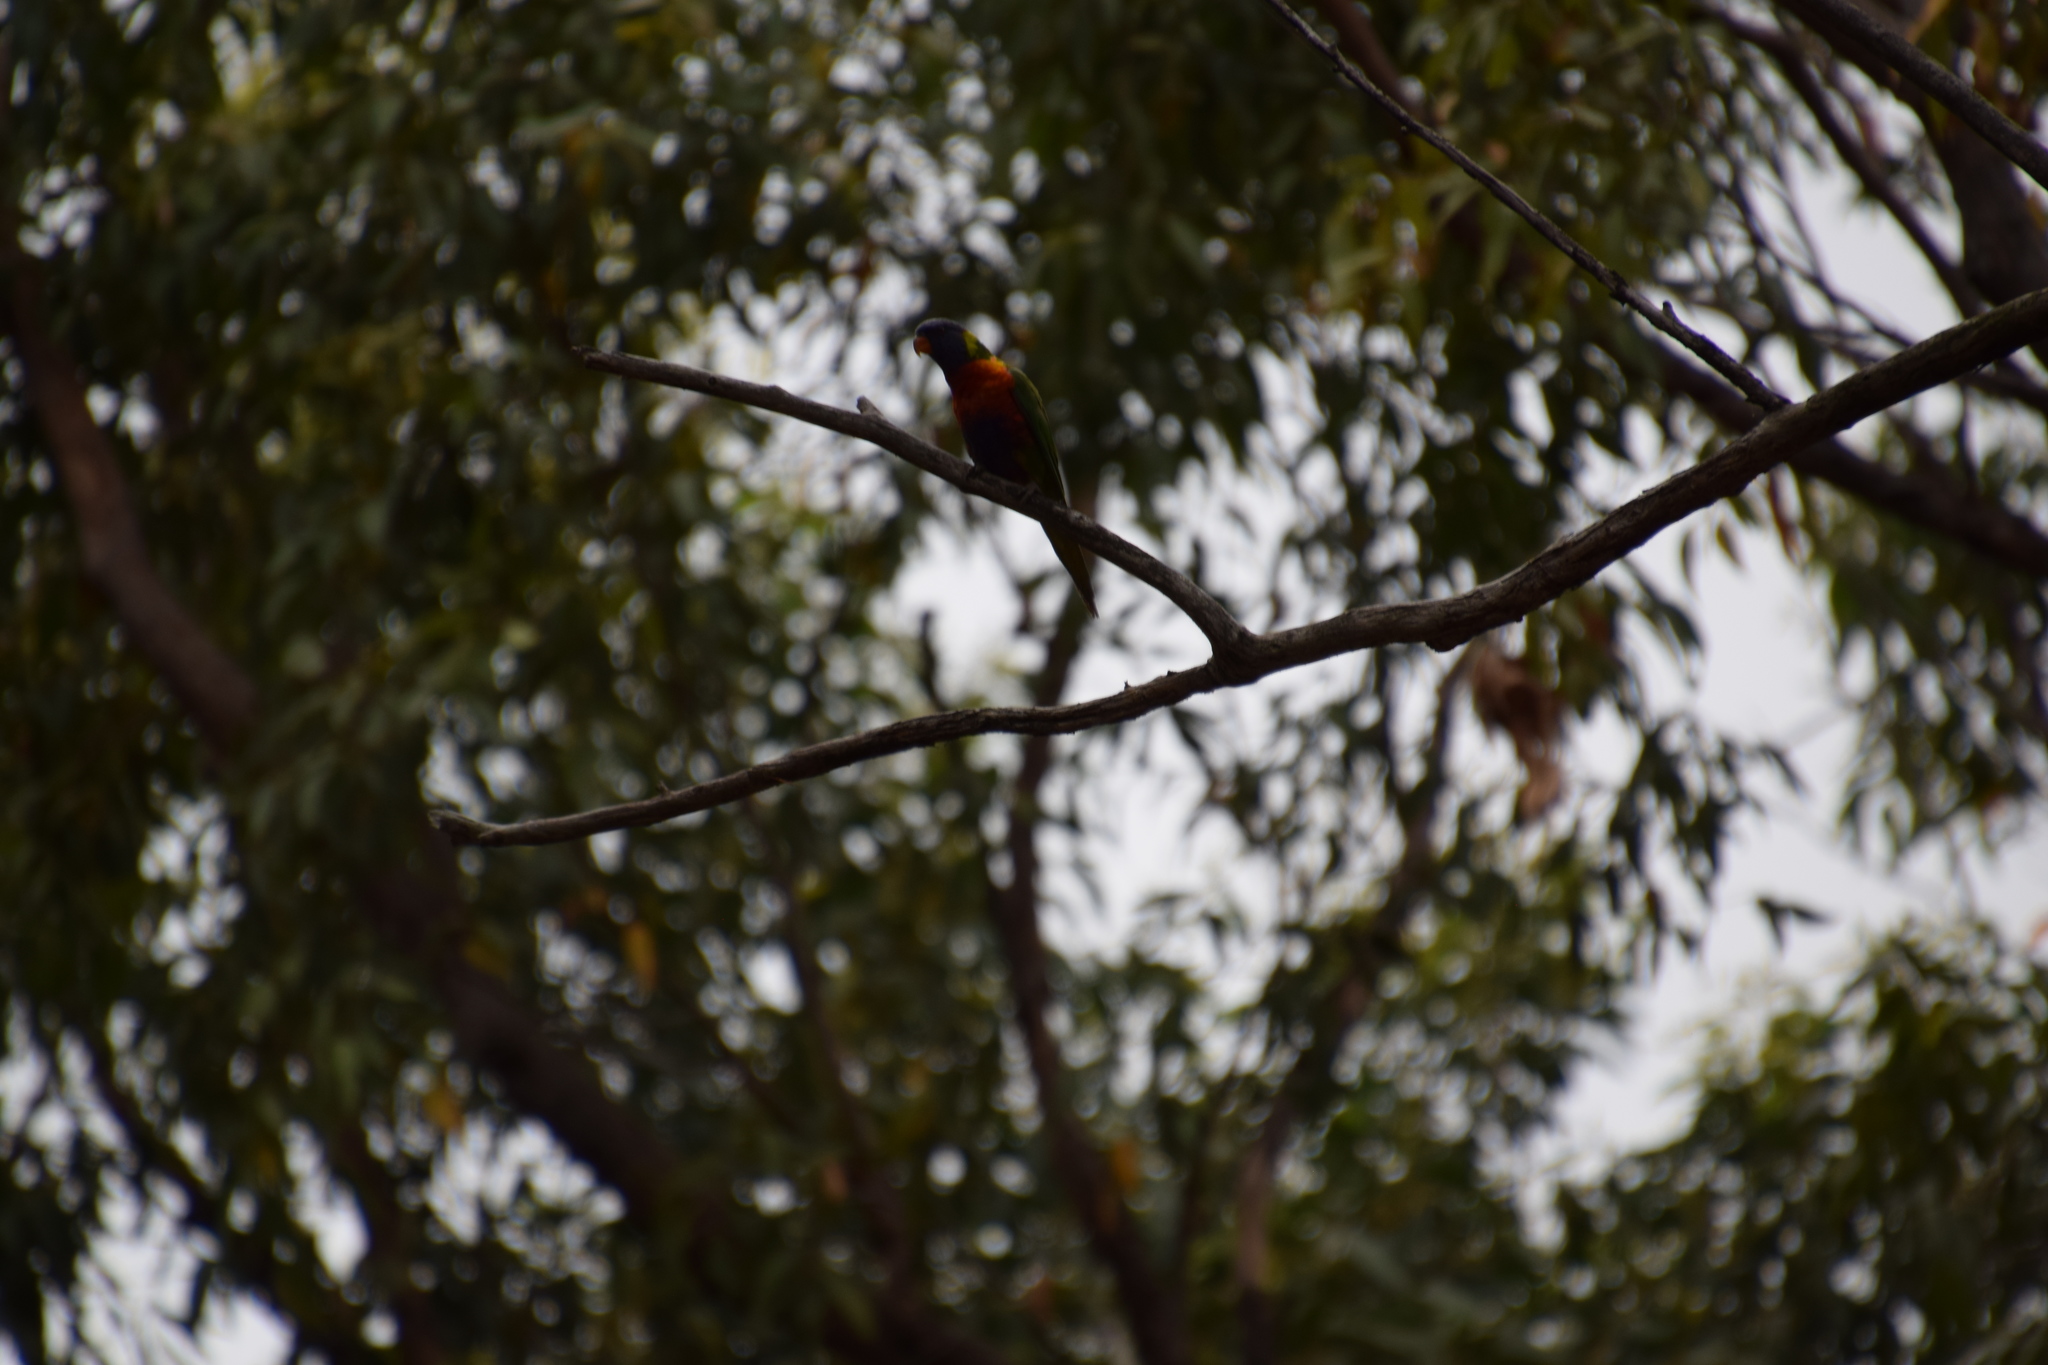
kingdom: Animalia
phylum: Chordata
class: Aves
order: Psittaciformes
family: Psittacidae
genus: Trichoglossus
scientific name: Trichoglossus haematodus
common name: Coconut lorikeet
